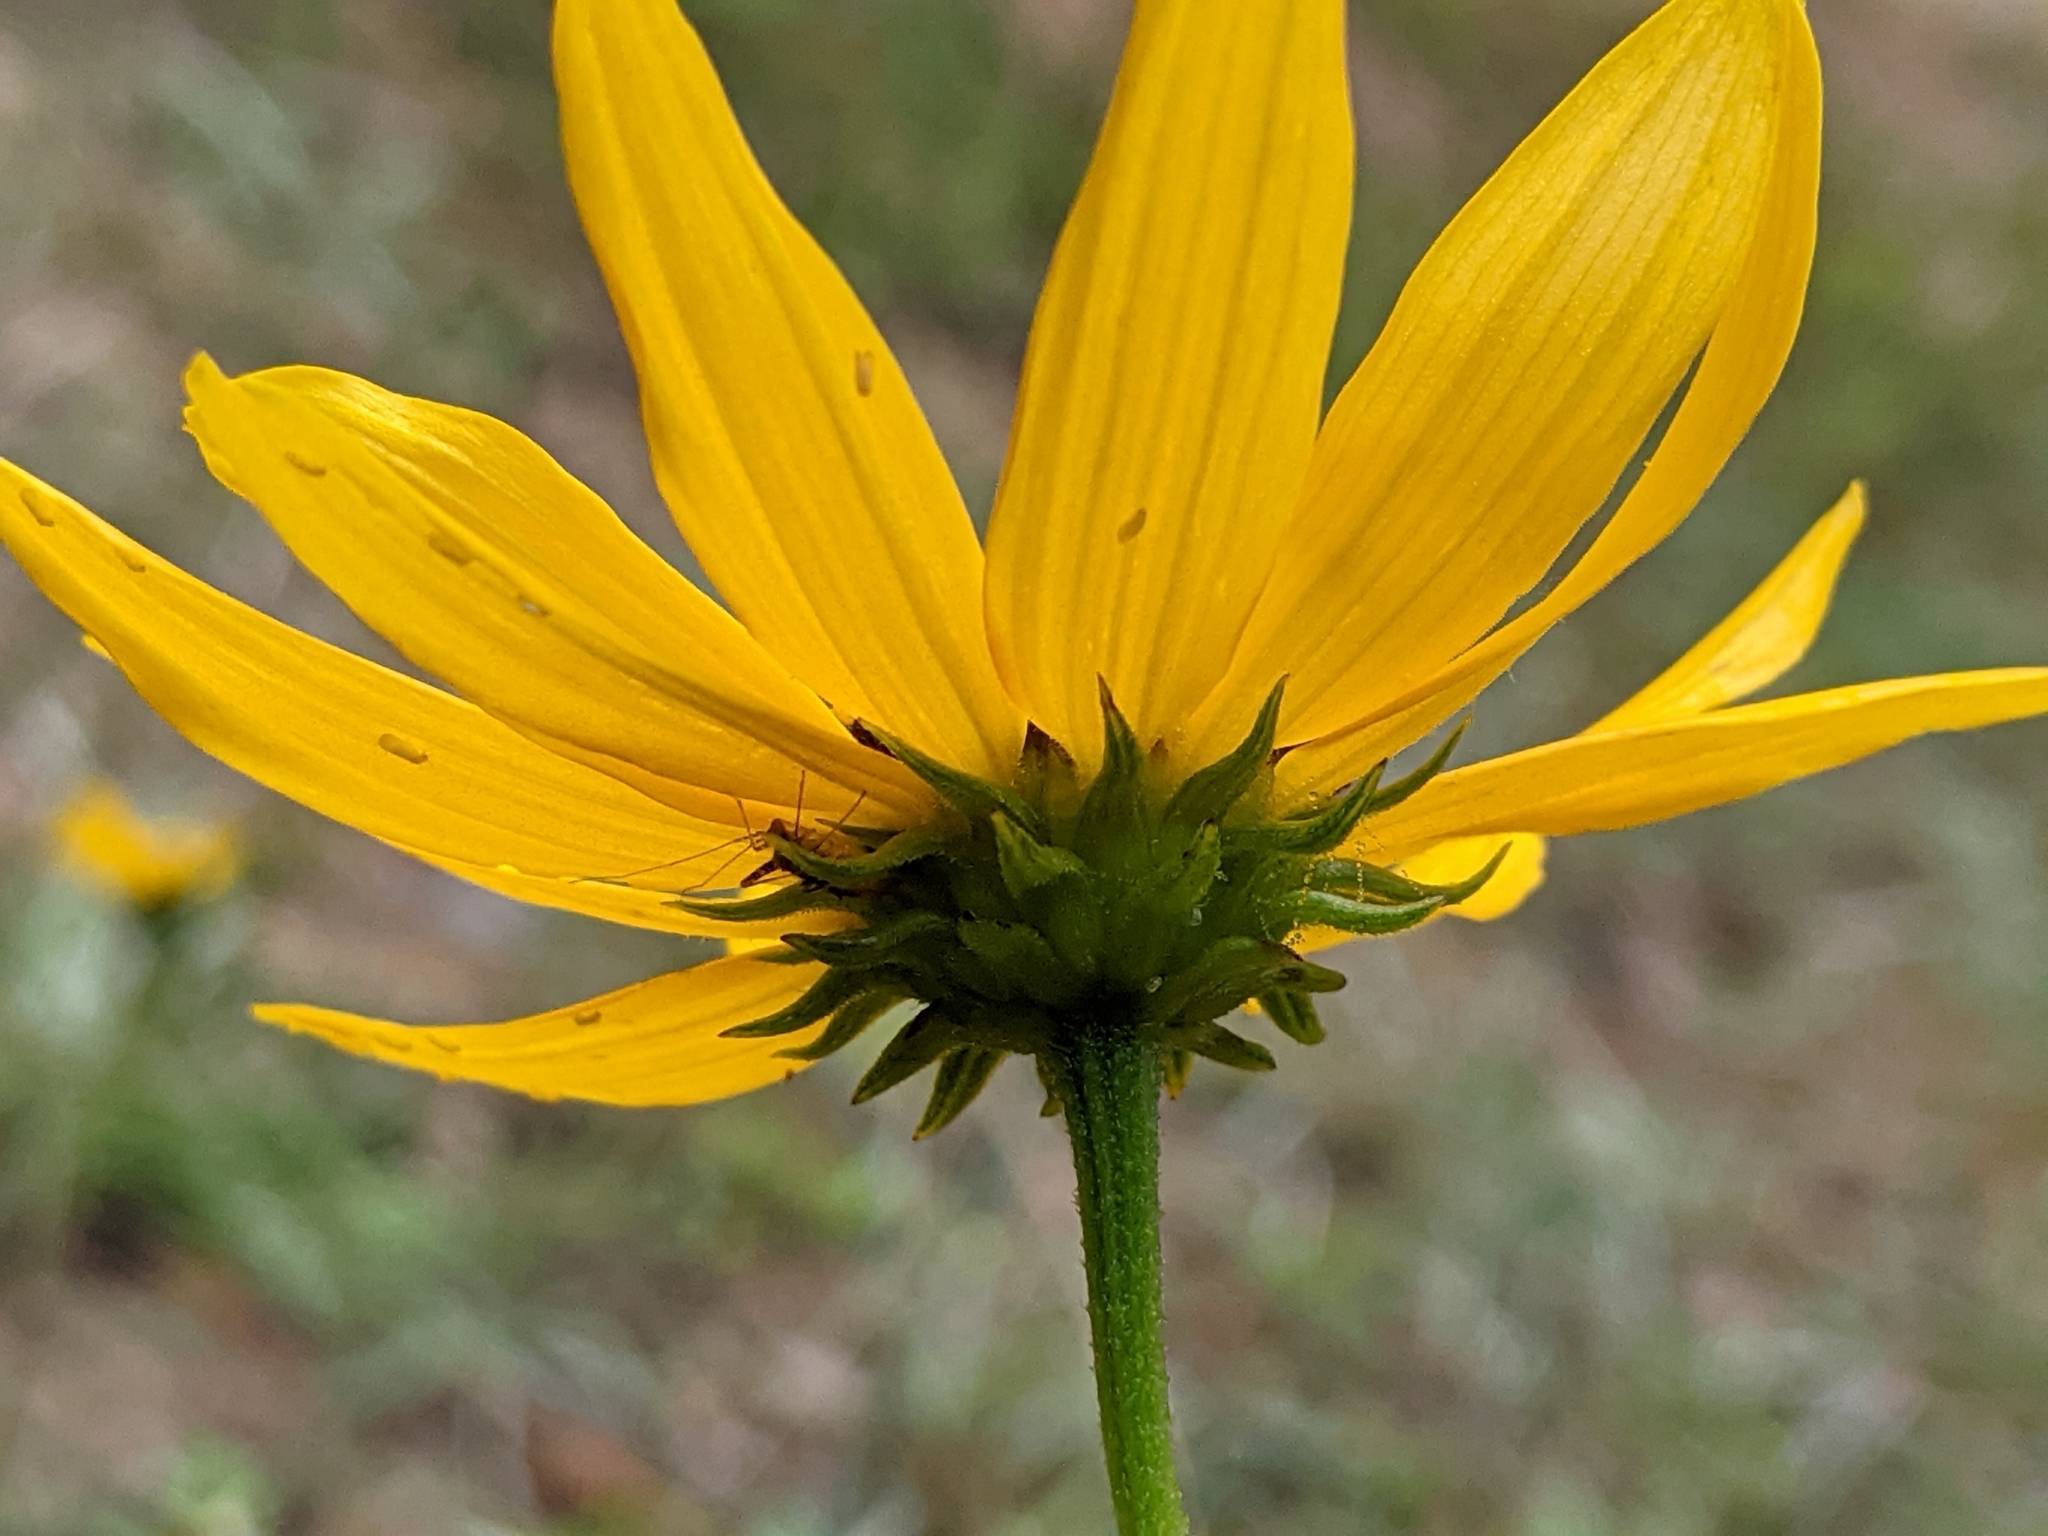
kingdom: Plantae
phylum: Tracheophyta
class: Magnoliopsida
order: Asterales
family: Asteraceae
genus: Helianthus
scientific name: Helianthus angustifolius
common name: Swamp sunflower
